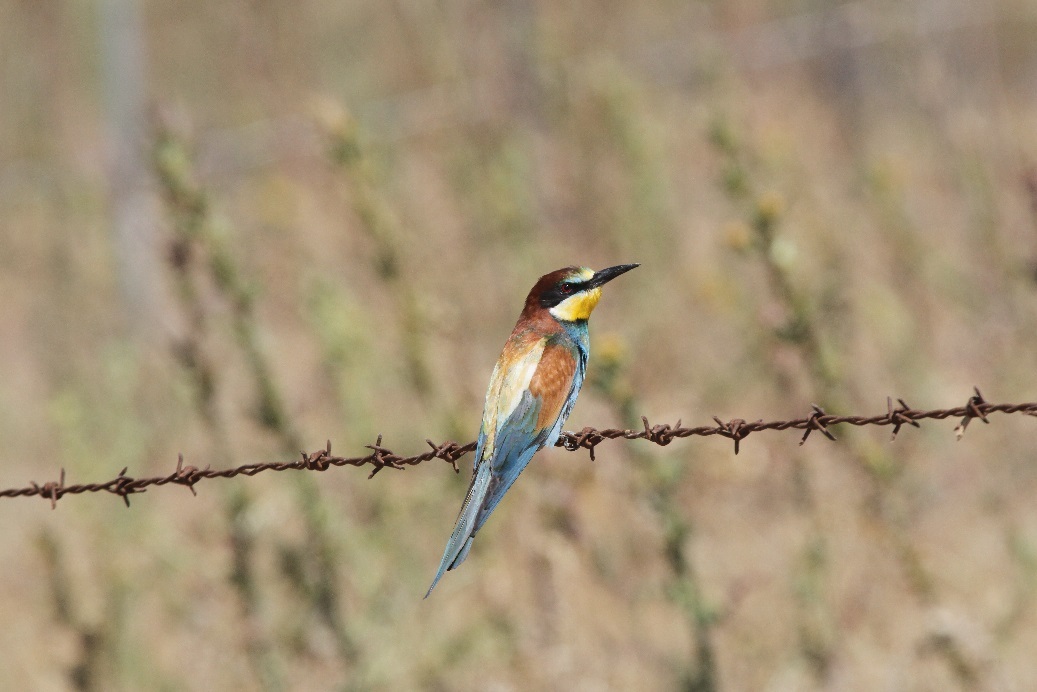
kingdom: Animalia
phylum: Chordata
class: Aves
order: Coraciiformes
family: Meropidae
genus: Merops
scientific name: Merops apiaster
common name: European bee-eater
